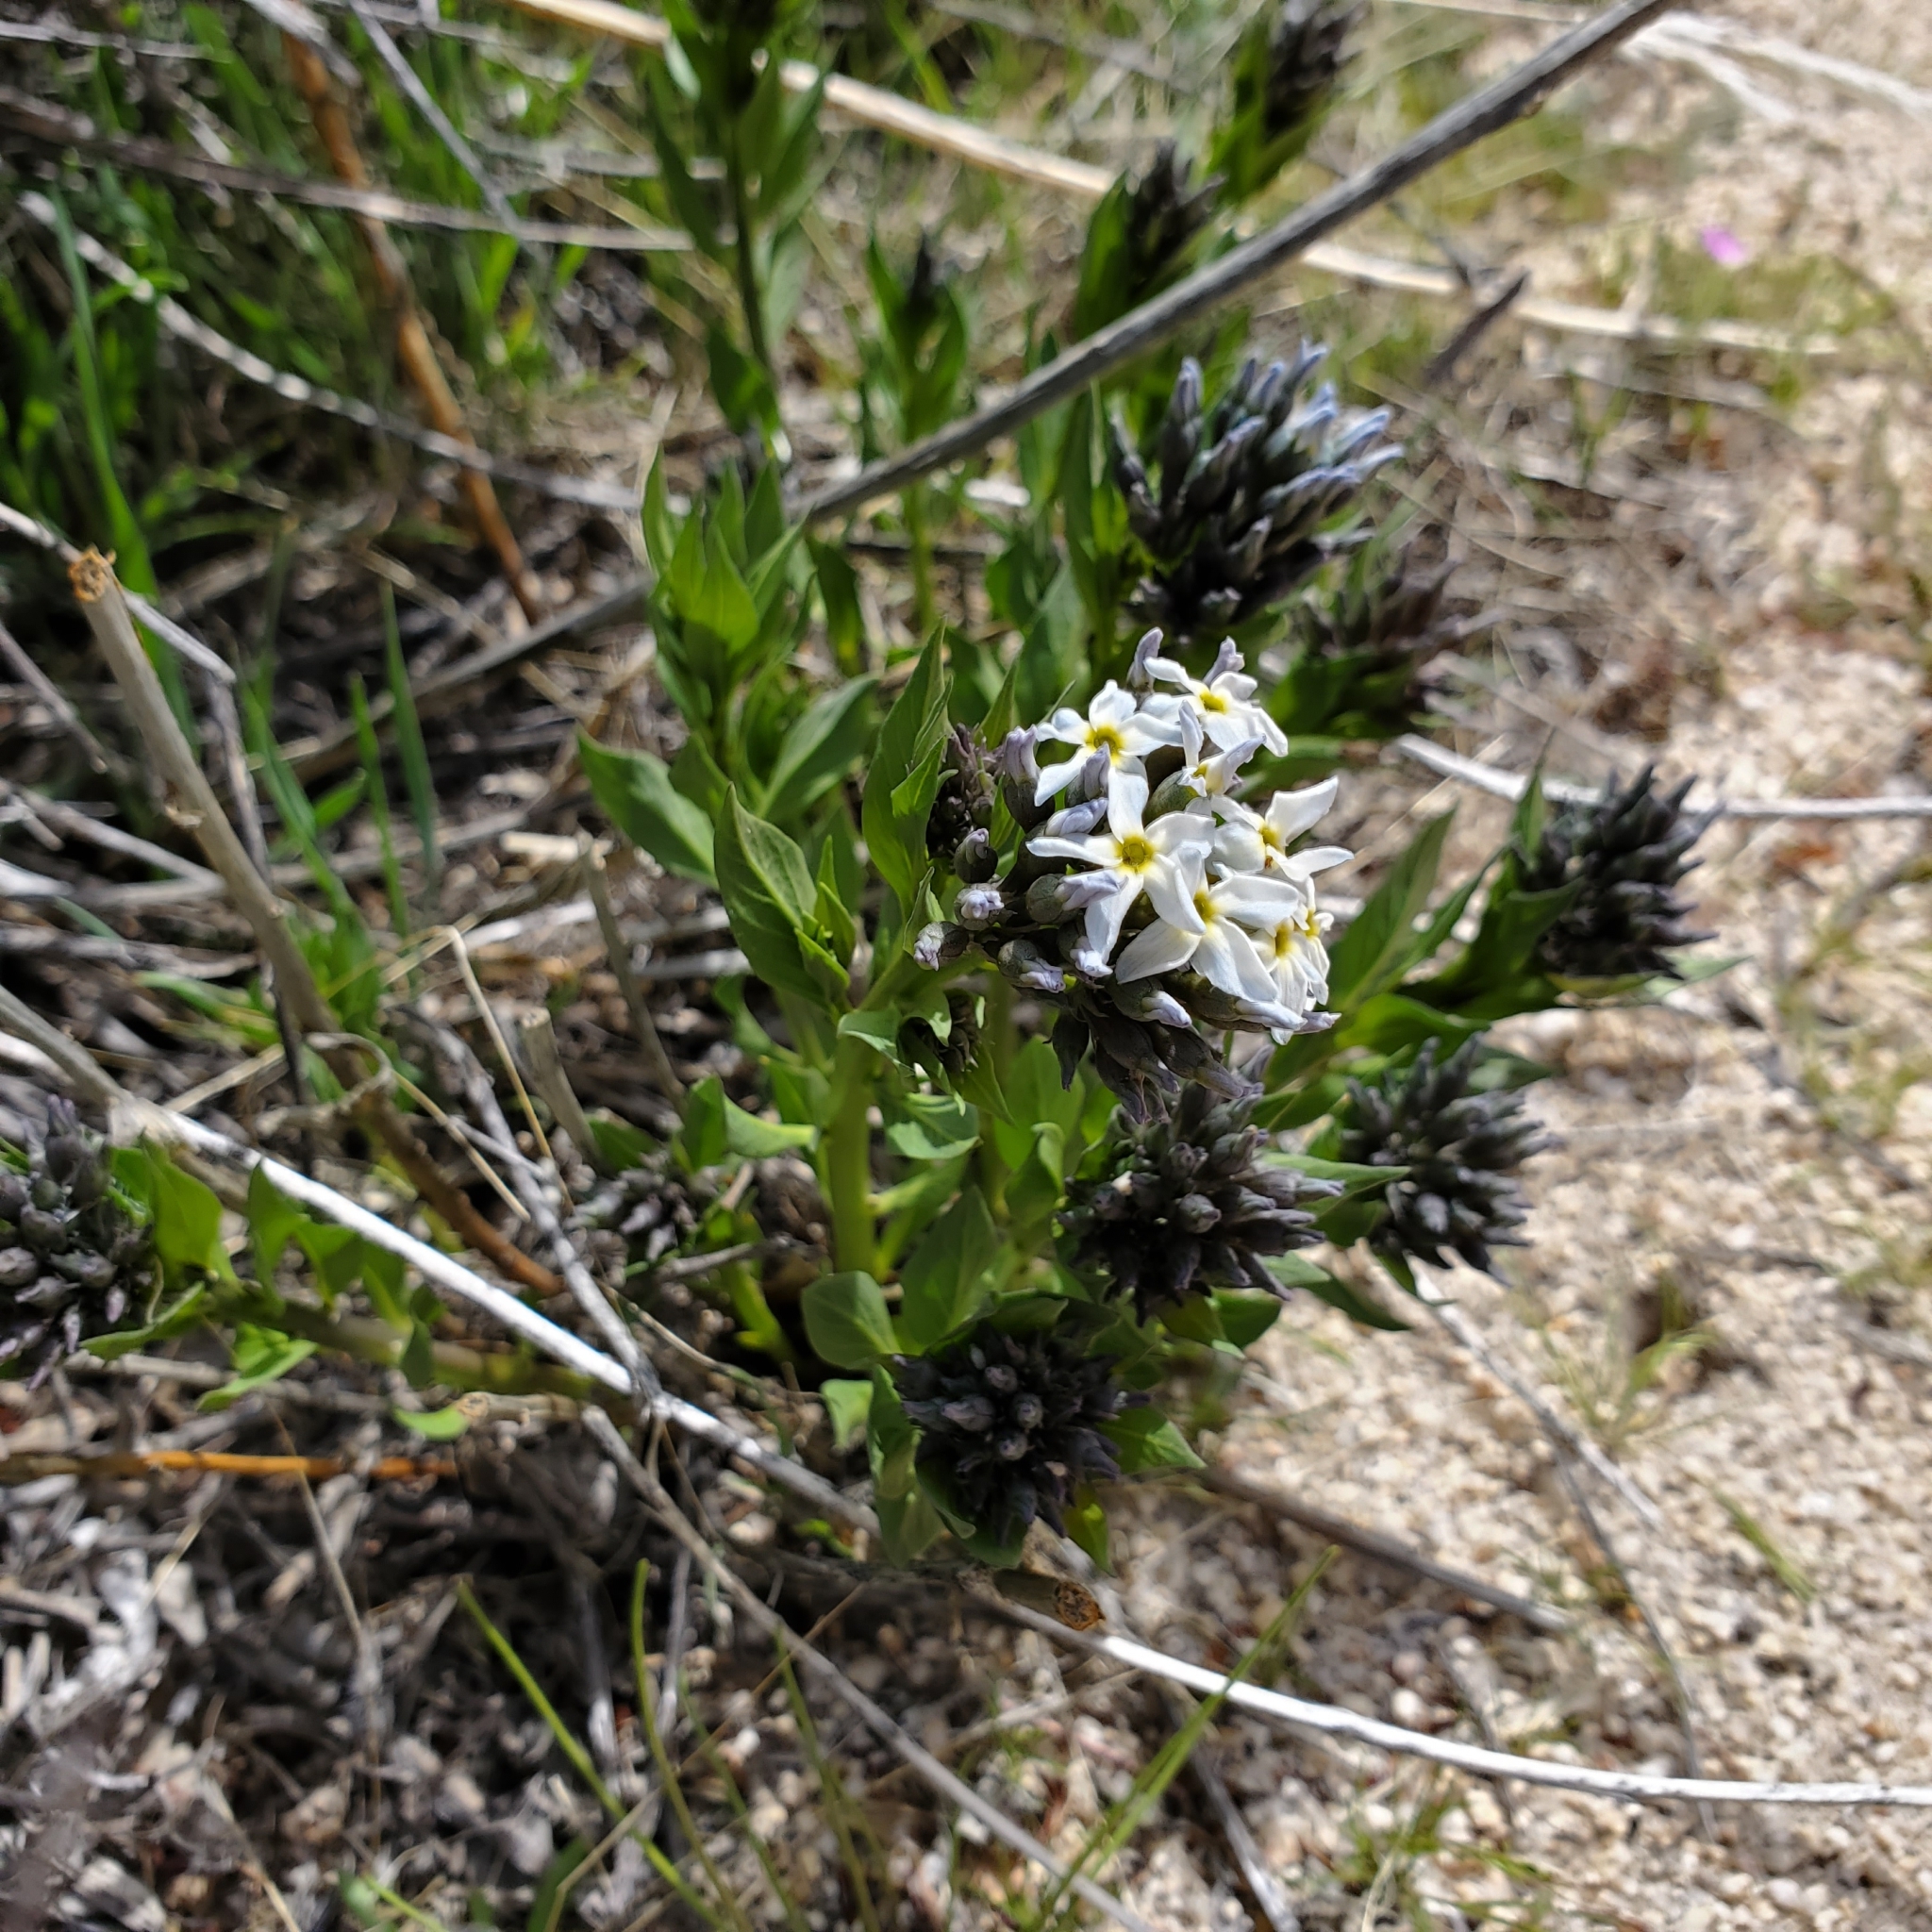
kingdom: Plantae
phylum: Tracheophyta
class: Magnoliopsida
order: Gentianales
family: Apocynaceae
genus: Amsonia
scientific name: Amsonia tomentosa
